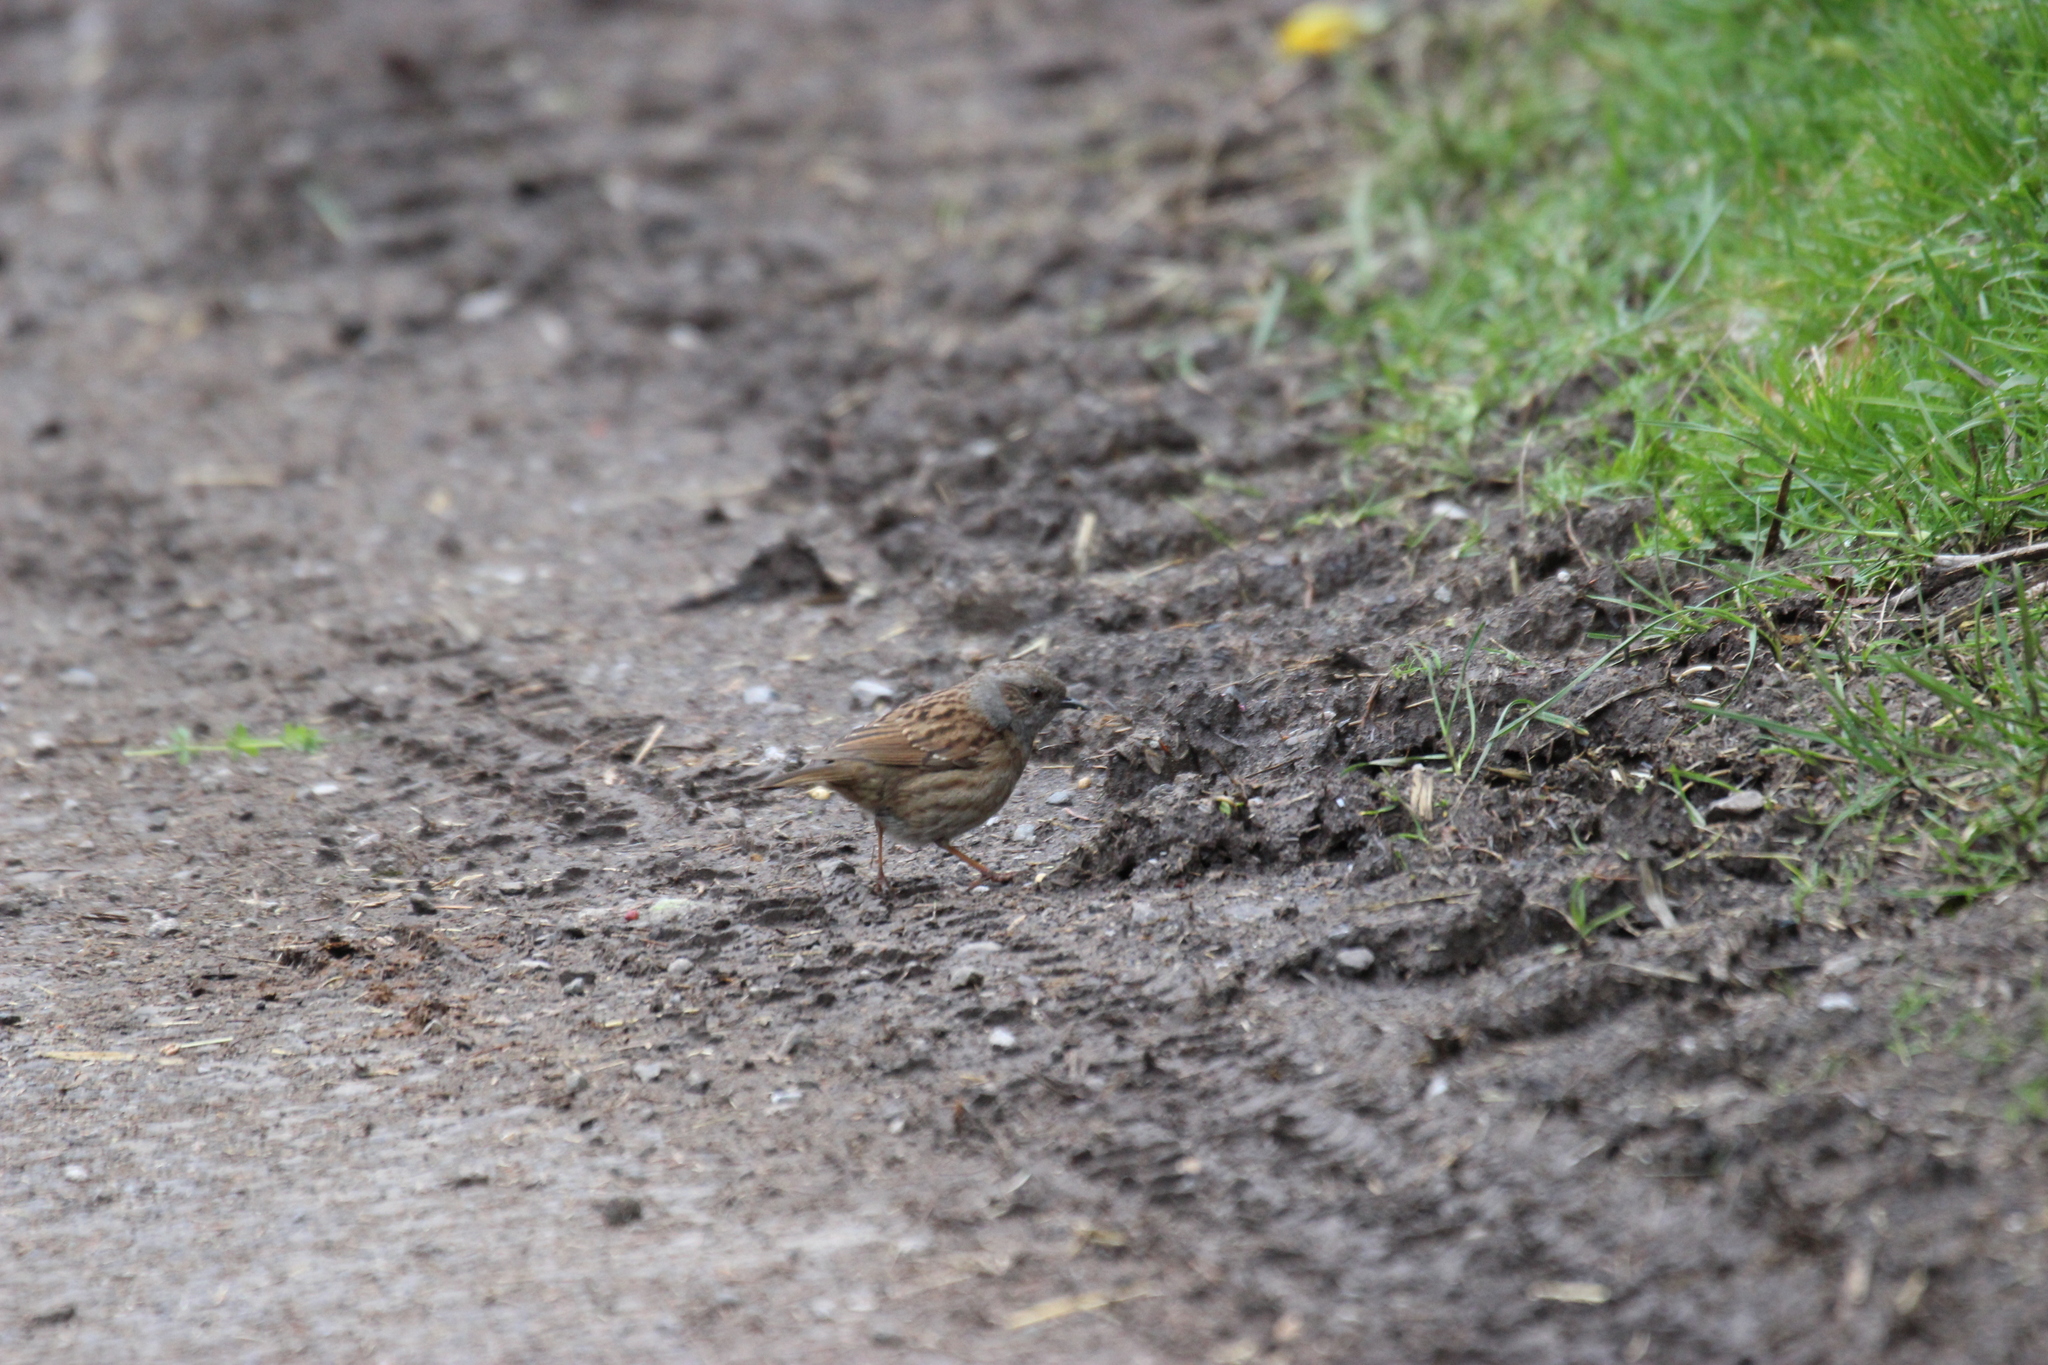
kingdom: Animalia
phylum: Chordata
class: Aves
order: Passeriformes
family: Prunellidae
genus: Prunella
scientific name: Prunella modularis
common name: Dunnock
